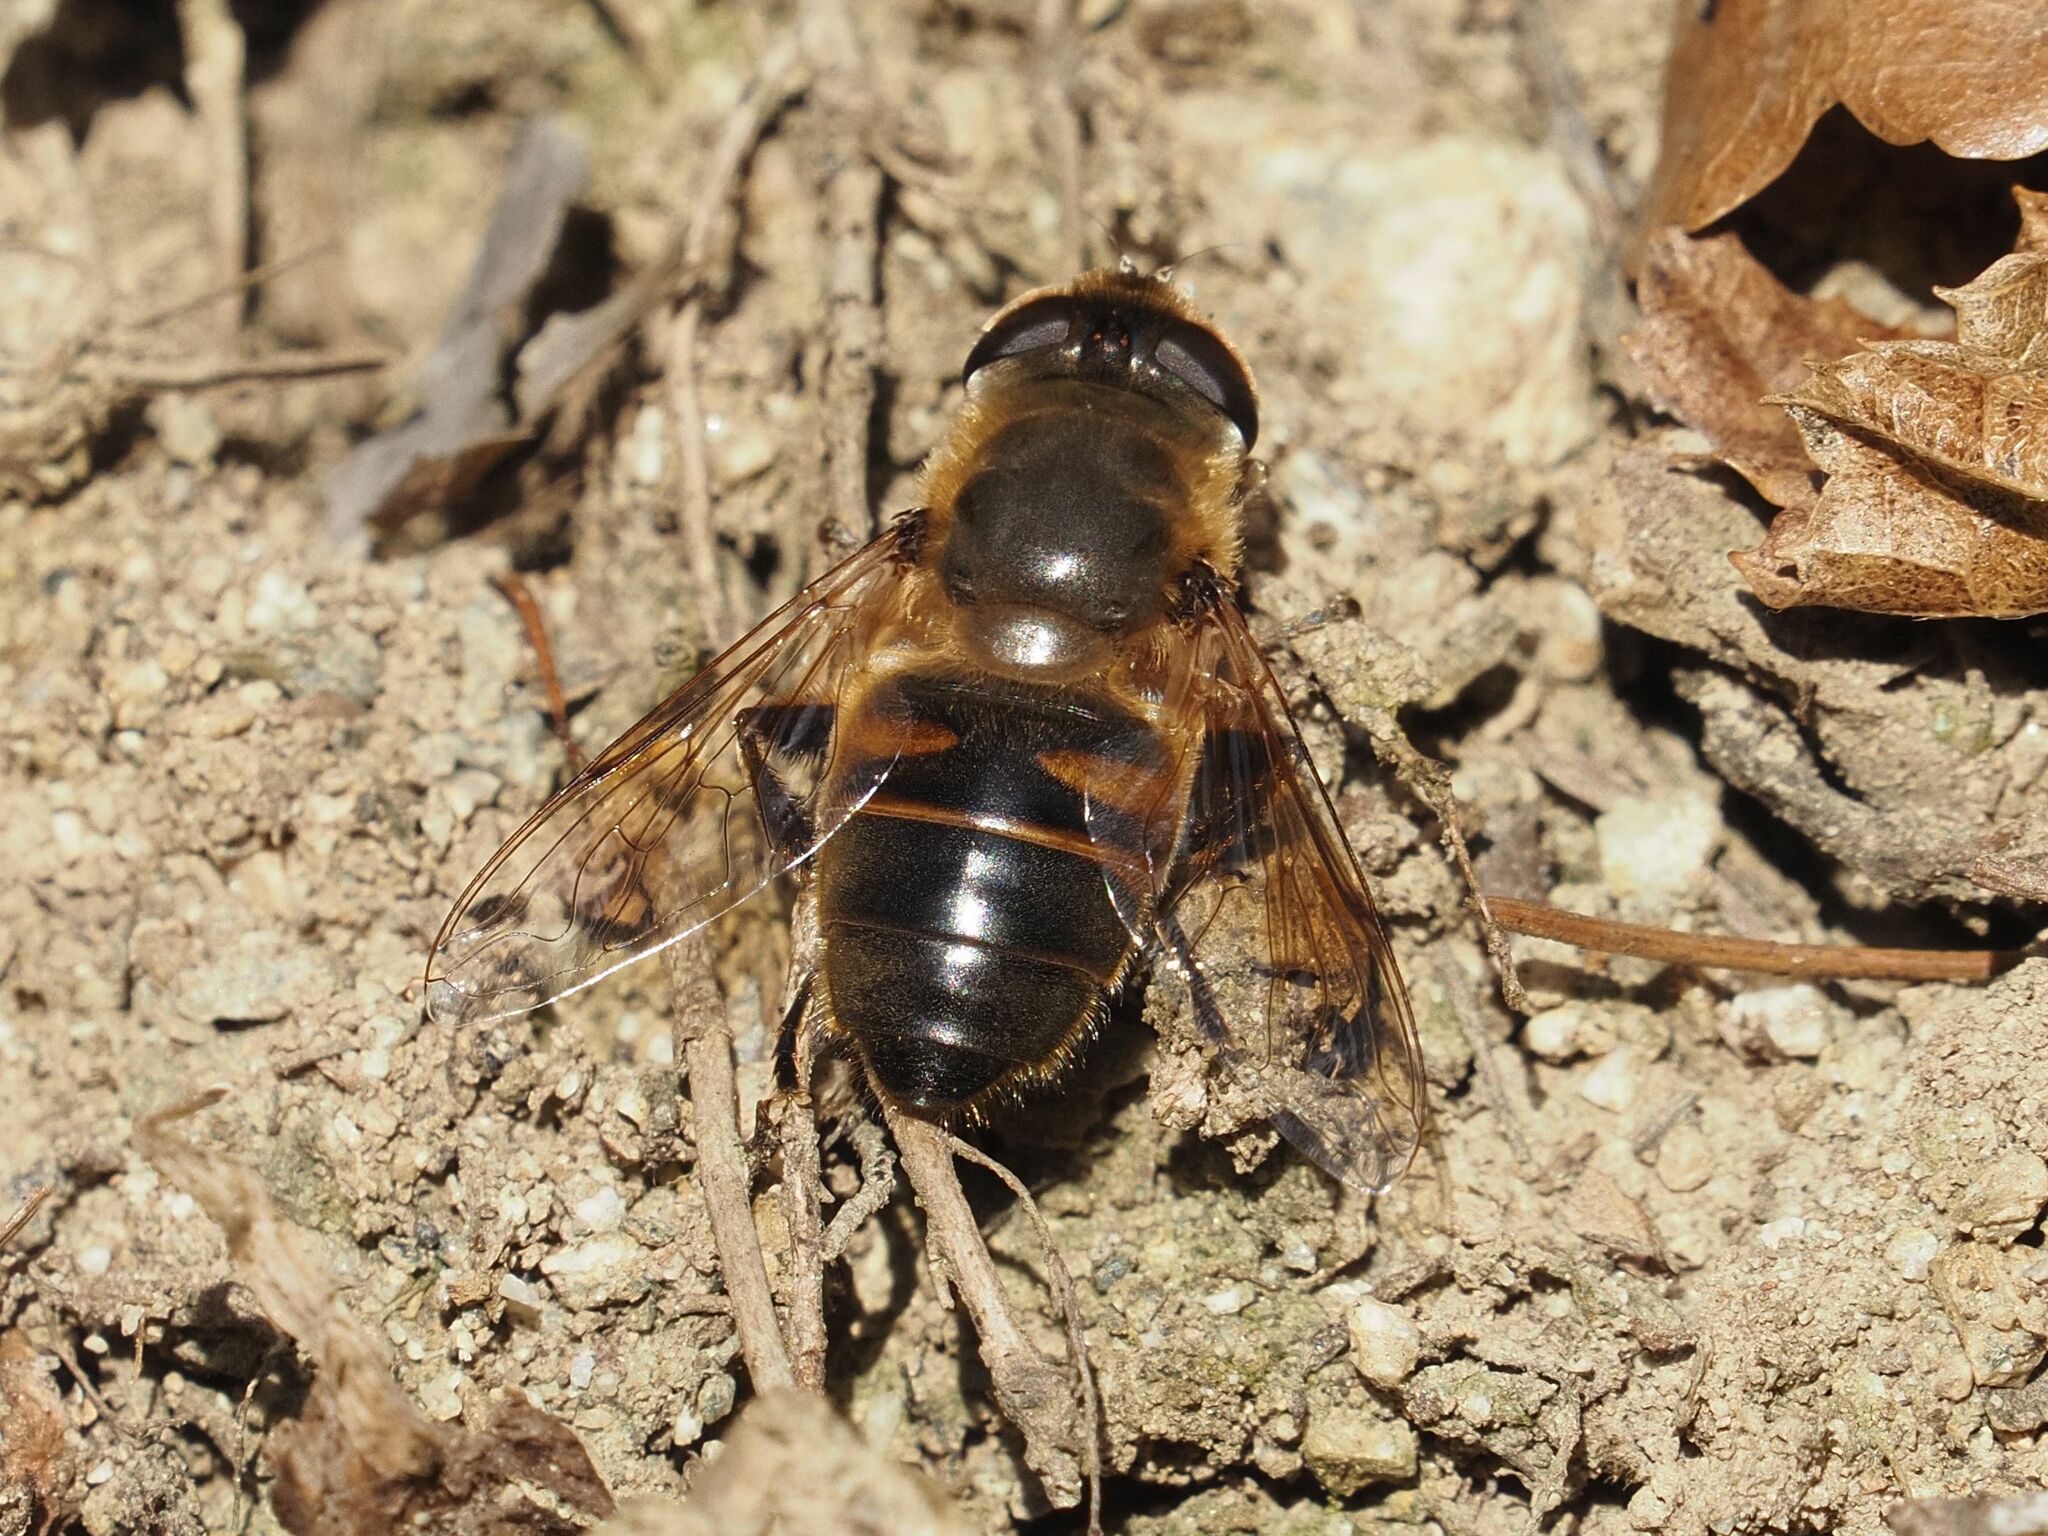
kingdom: Animalia
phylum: Arthropoda
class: Insecta
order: Diptera
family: Syrphidae
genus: Eristalis
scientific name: Eristalis tenax
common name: Drone fly
